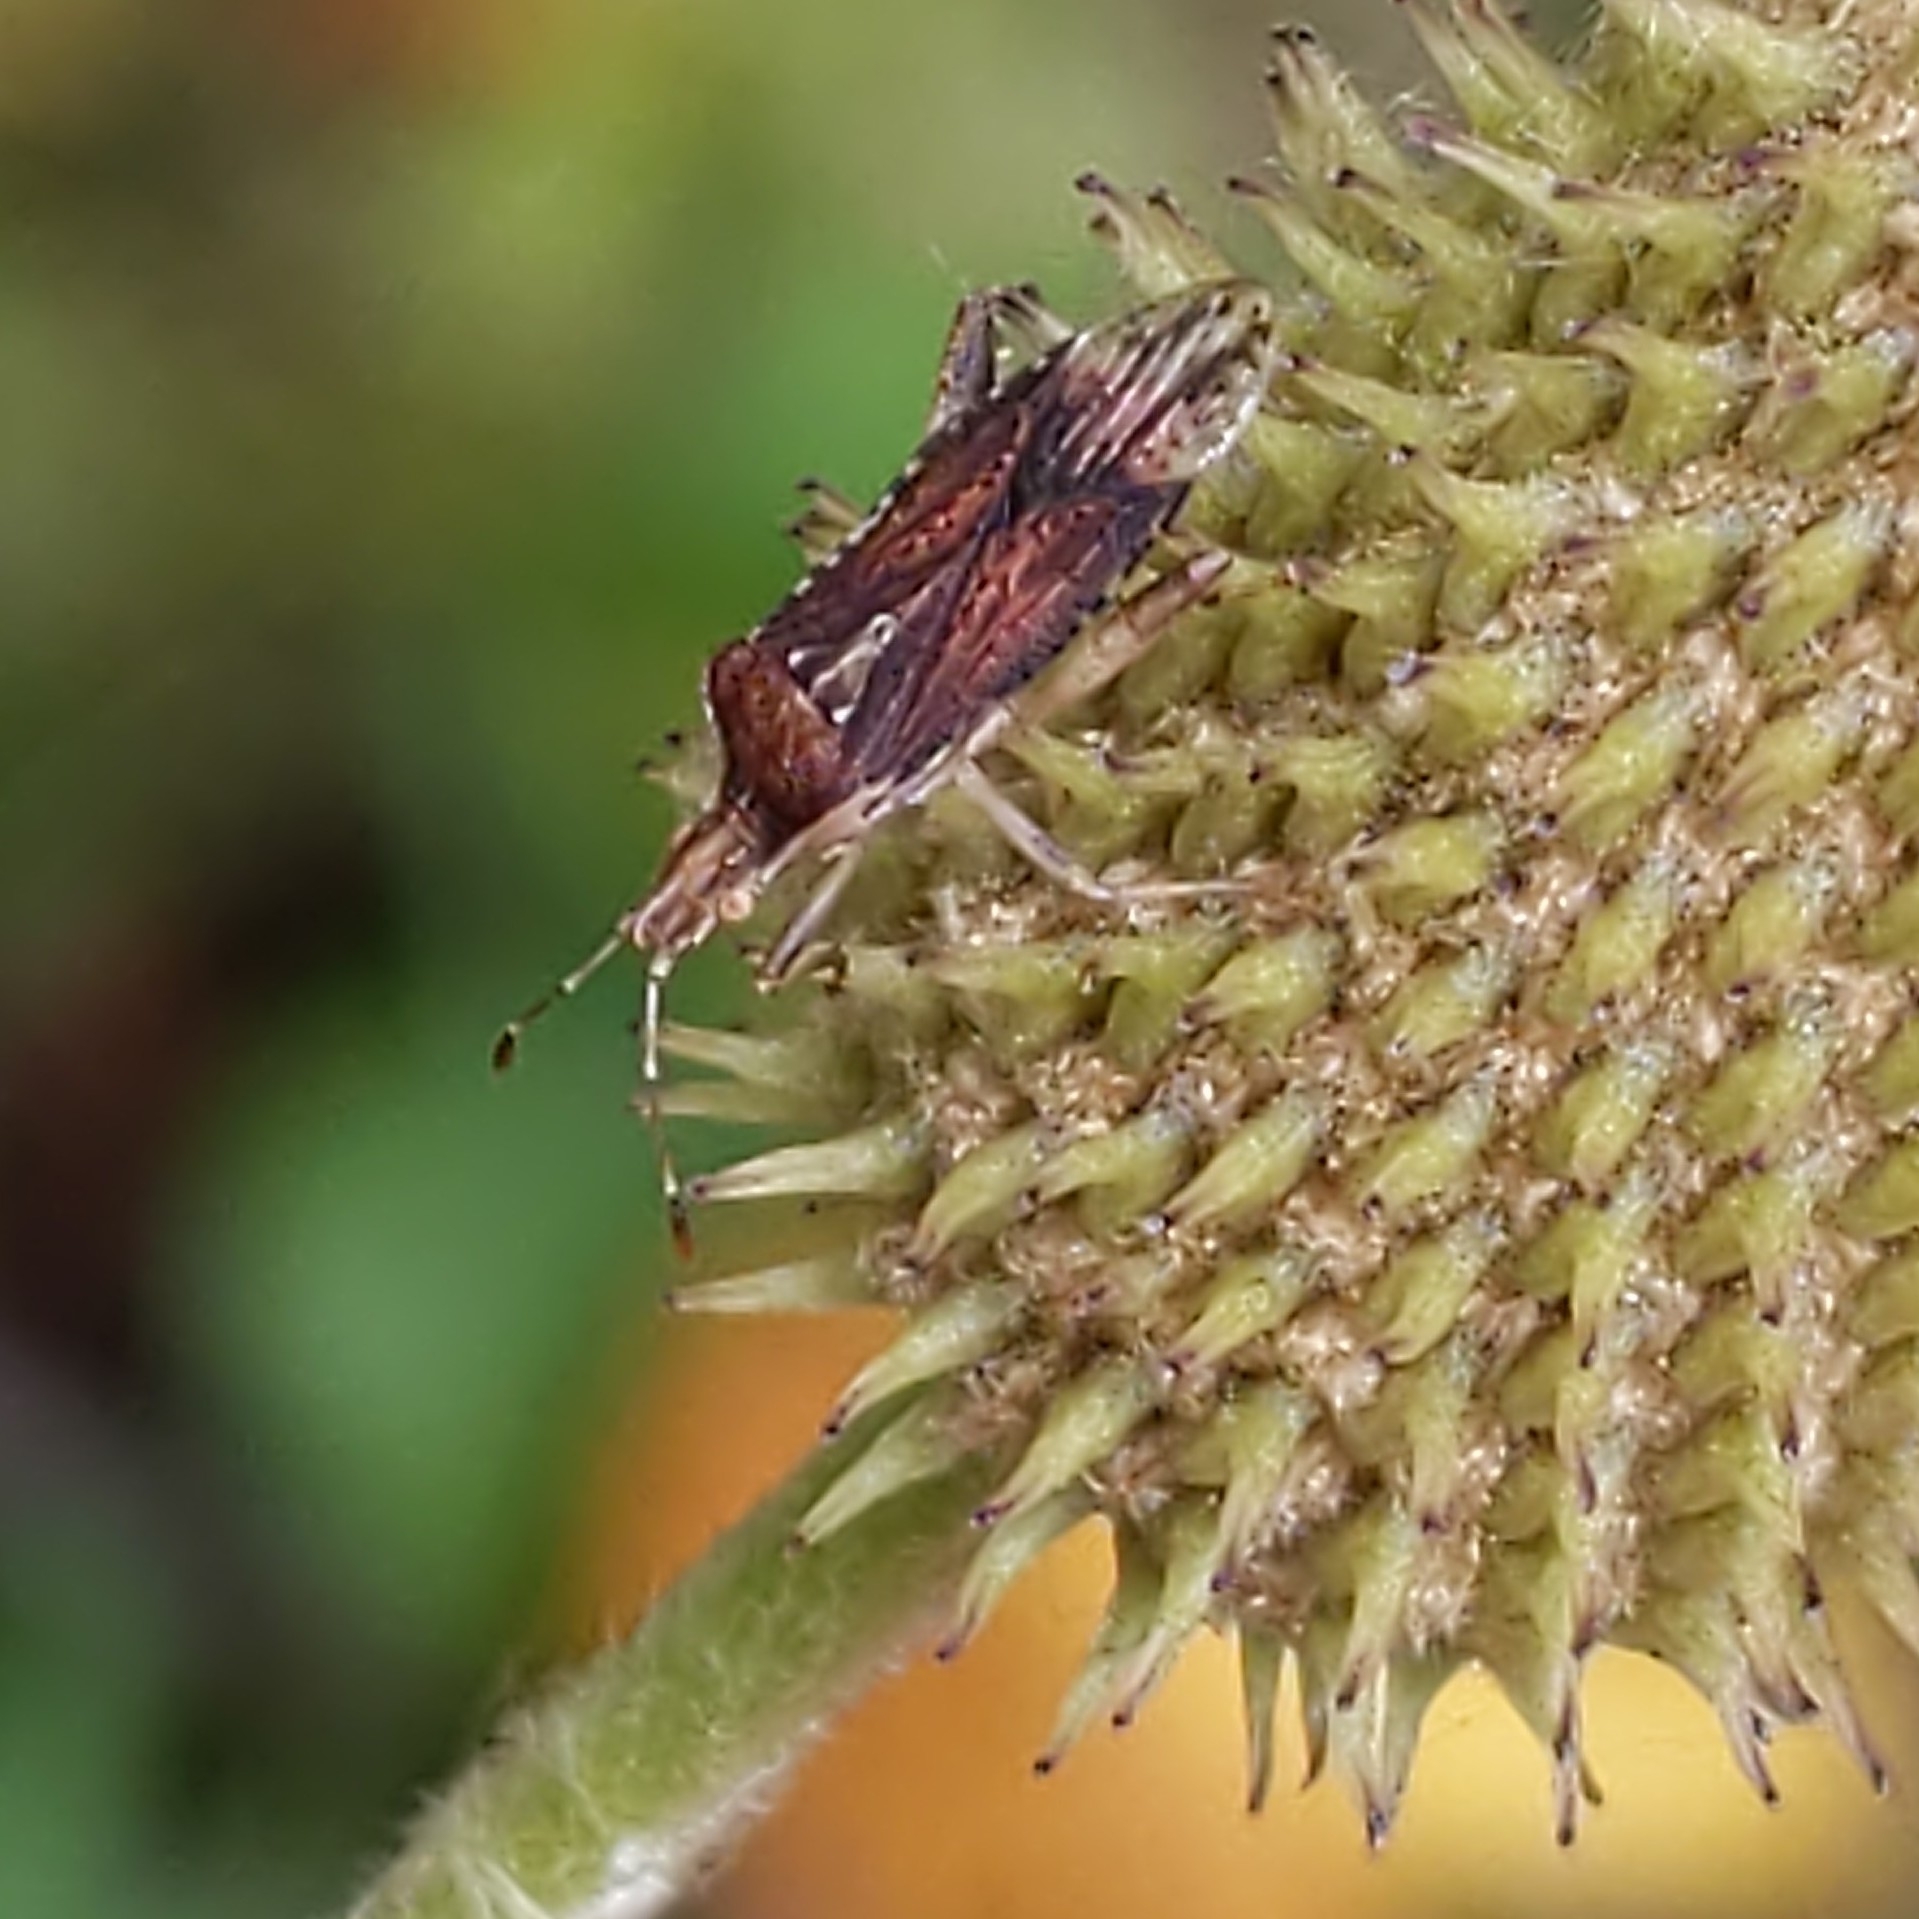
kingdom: Animalia
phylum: Arthropoda
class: Insecta
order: Hemiptera
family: Rhopalidae
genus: Harmostes
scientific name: Harmostes fraterculus
